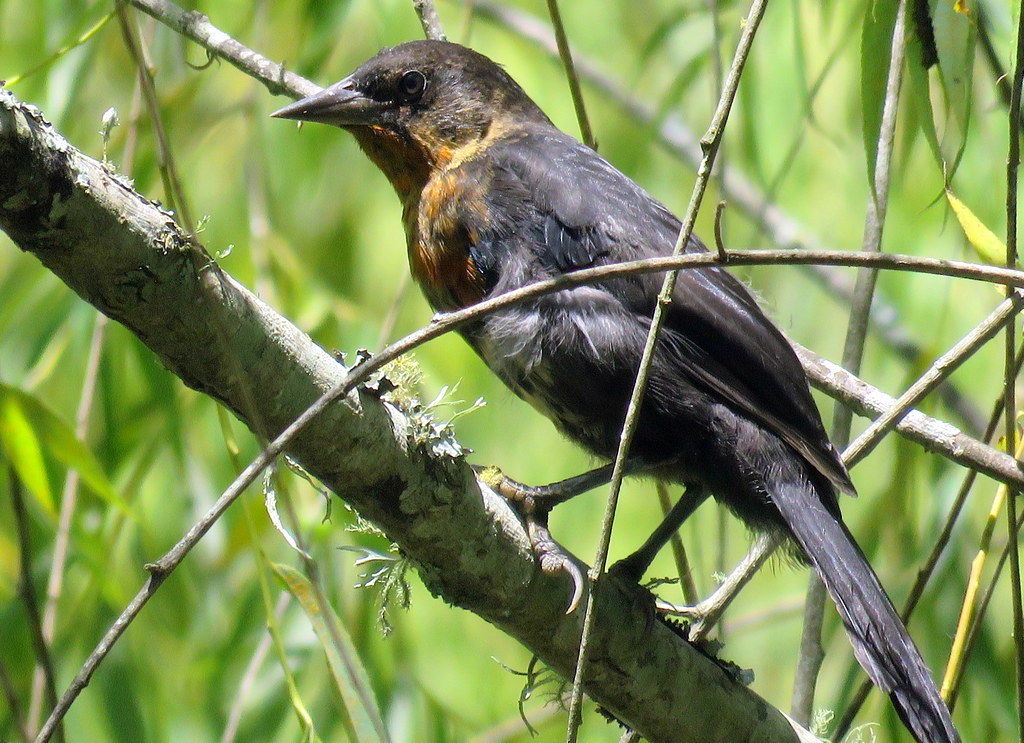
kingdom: Animalia
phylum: Chordata
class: Aves
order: Passeriformes
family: Icteridae
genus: Amblyramphus
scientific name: Amblyramphus holosericeus
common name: Scarlet-headed blackbird
